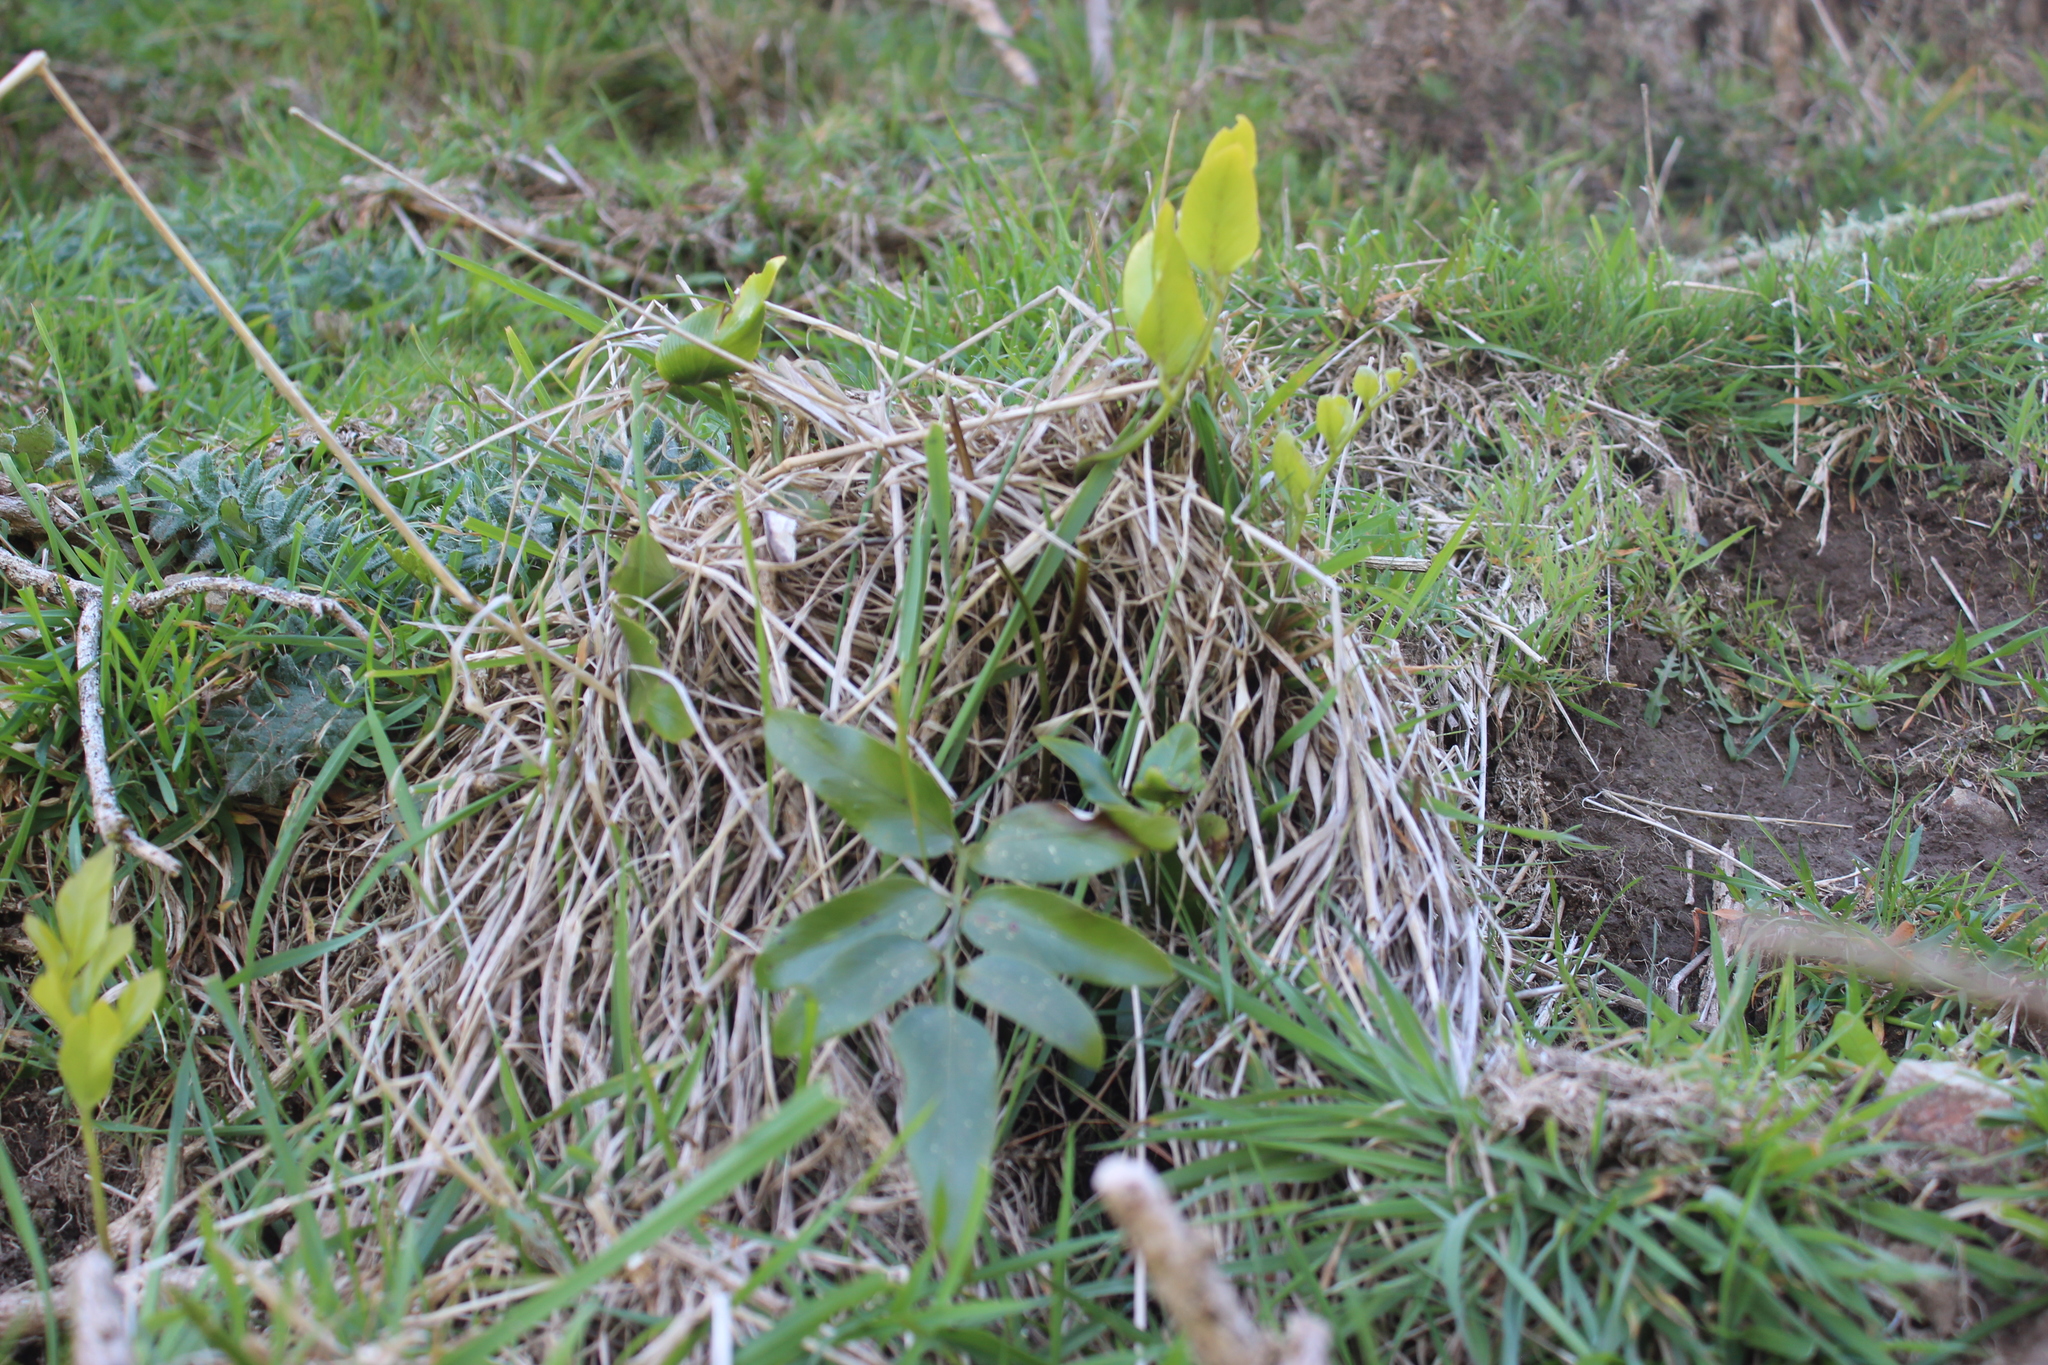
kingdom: Plantae
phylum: Tracheophyta
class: Polypodiopsida
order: Polypodiales
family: Aspleniaceae
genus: Asplenium
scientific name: Asplenium oblongifolium
